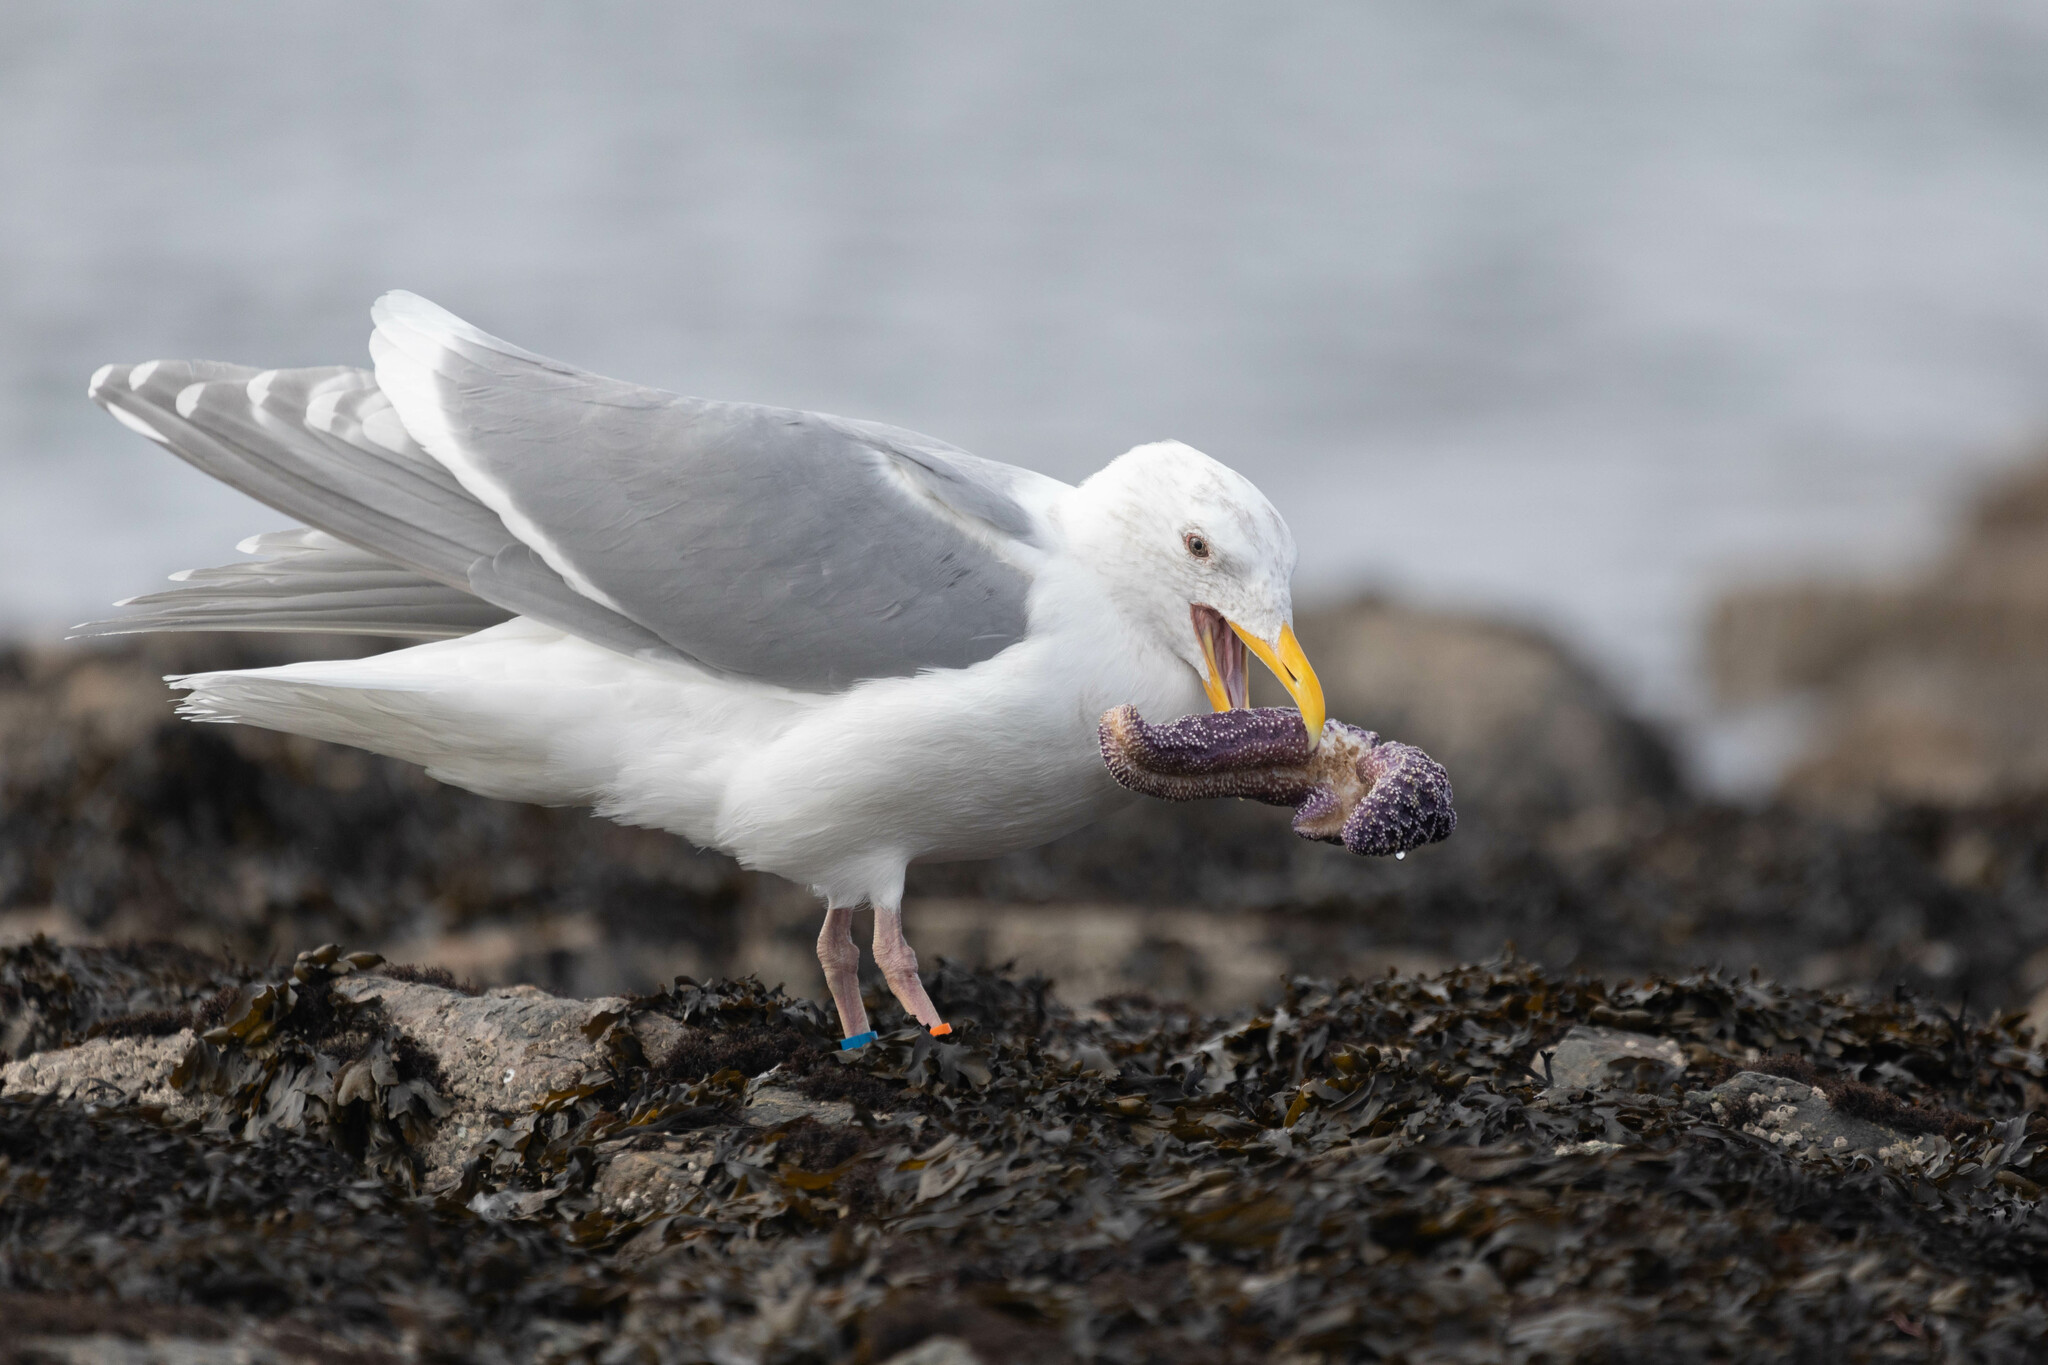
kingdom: Animalia
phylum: Chordata
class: Aves
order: Charadriiformes
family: Laridae
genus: Larus
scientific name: Larus glaucescens
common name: Glaucous-winged gull
